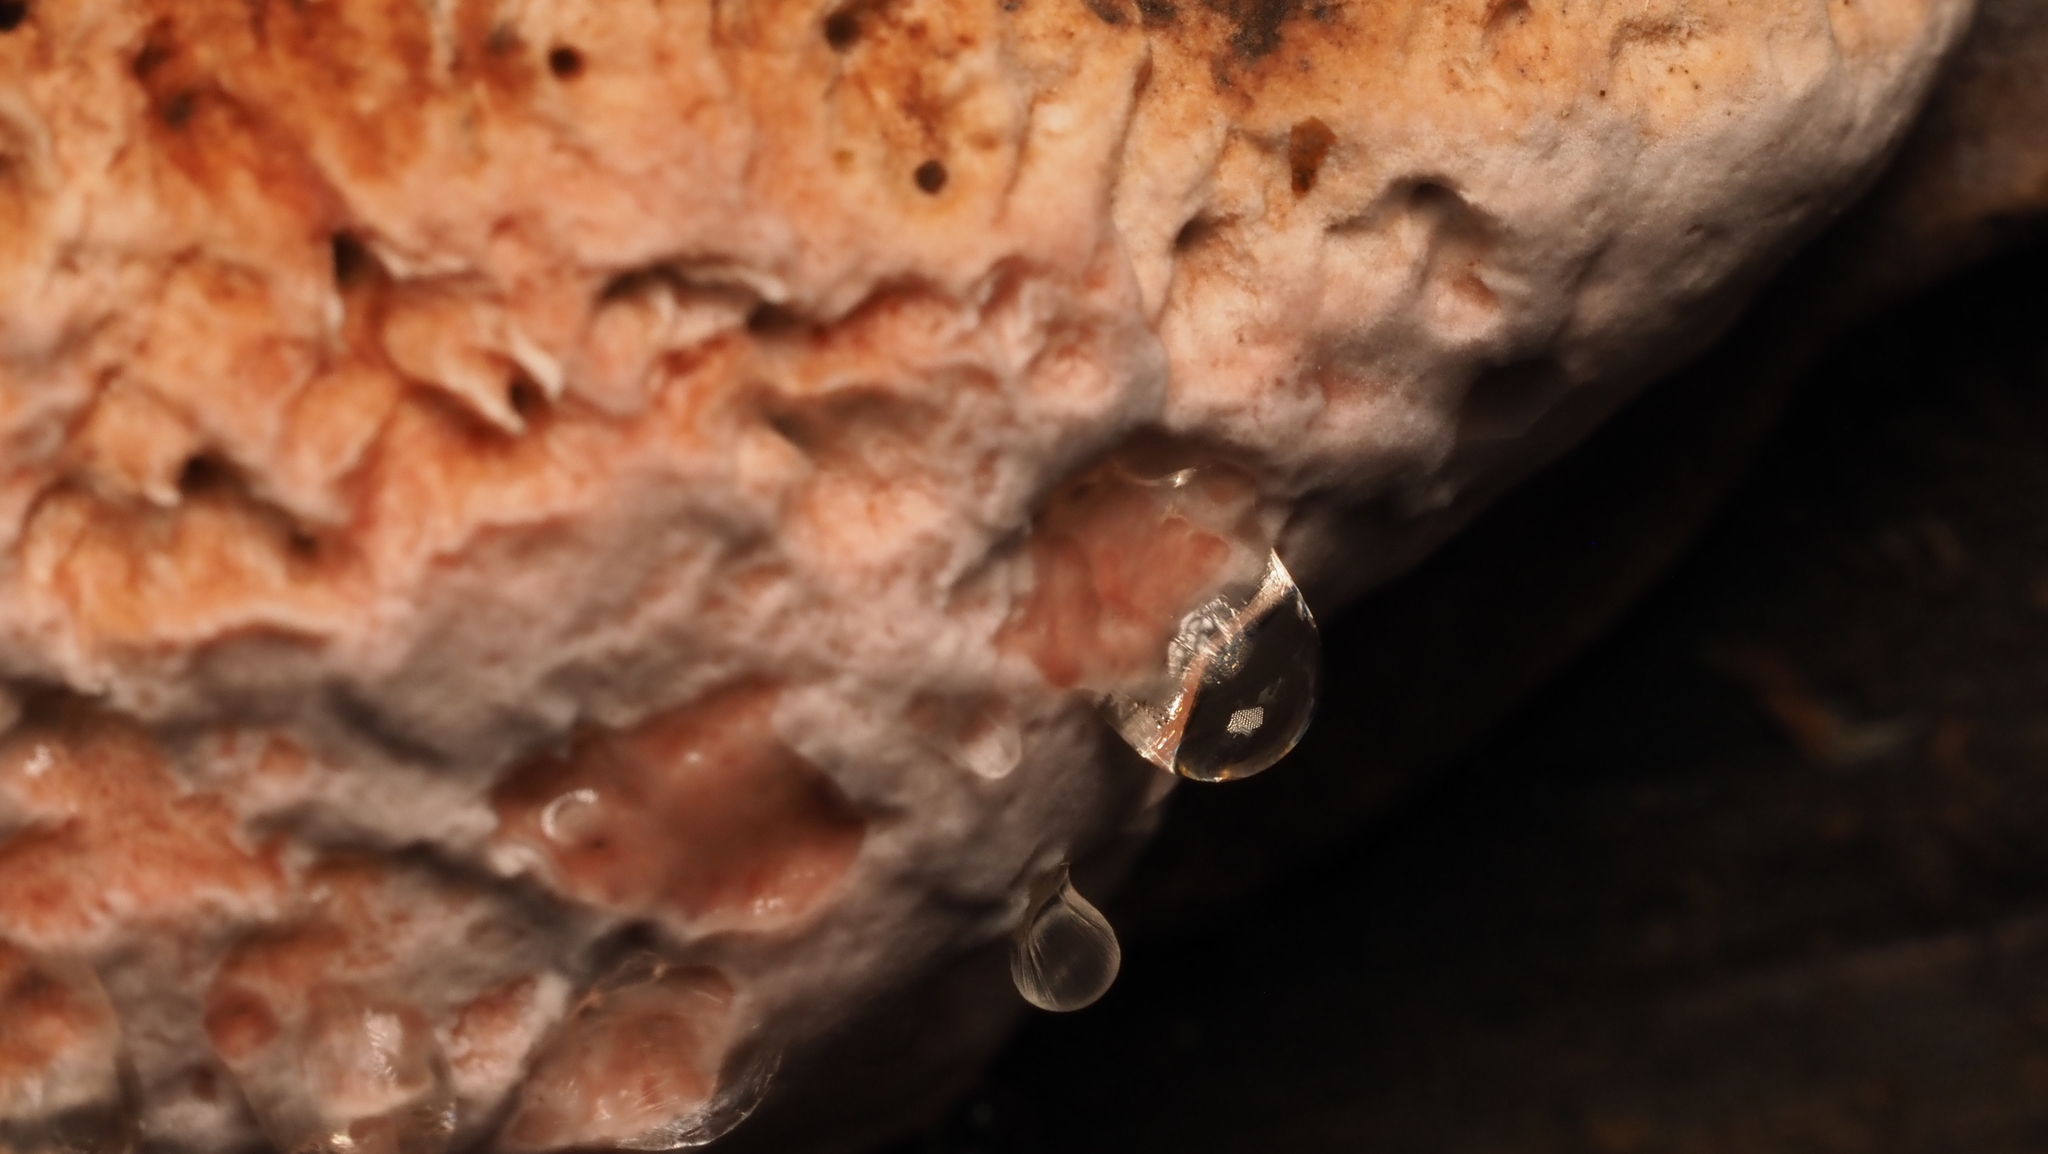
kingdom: Fungi
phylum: Basidiomycota
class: Agaricomycetes
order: Polyporales
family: Ischnodermataceae
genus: Ischnoderma
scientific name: Ischnoderma resinosum
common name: Resinous polypore
